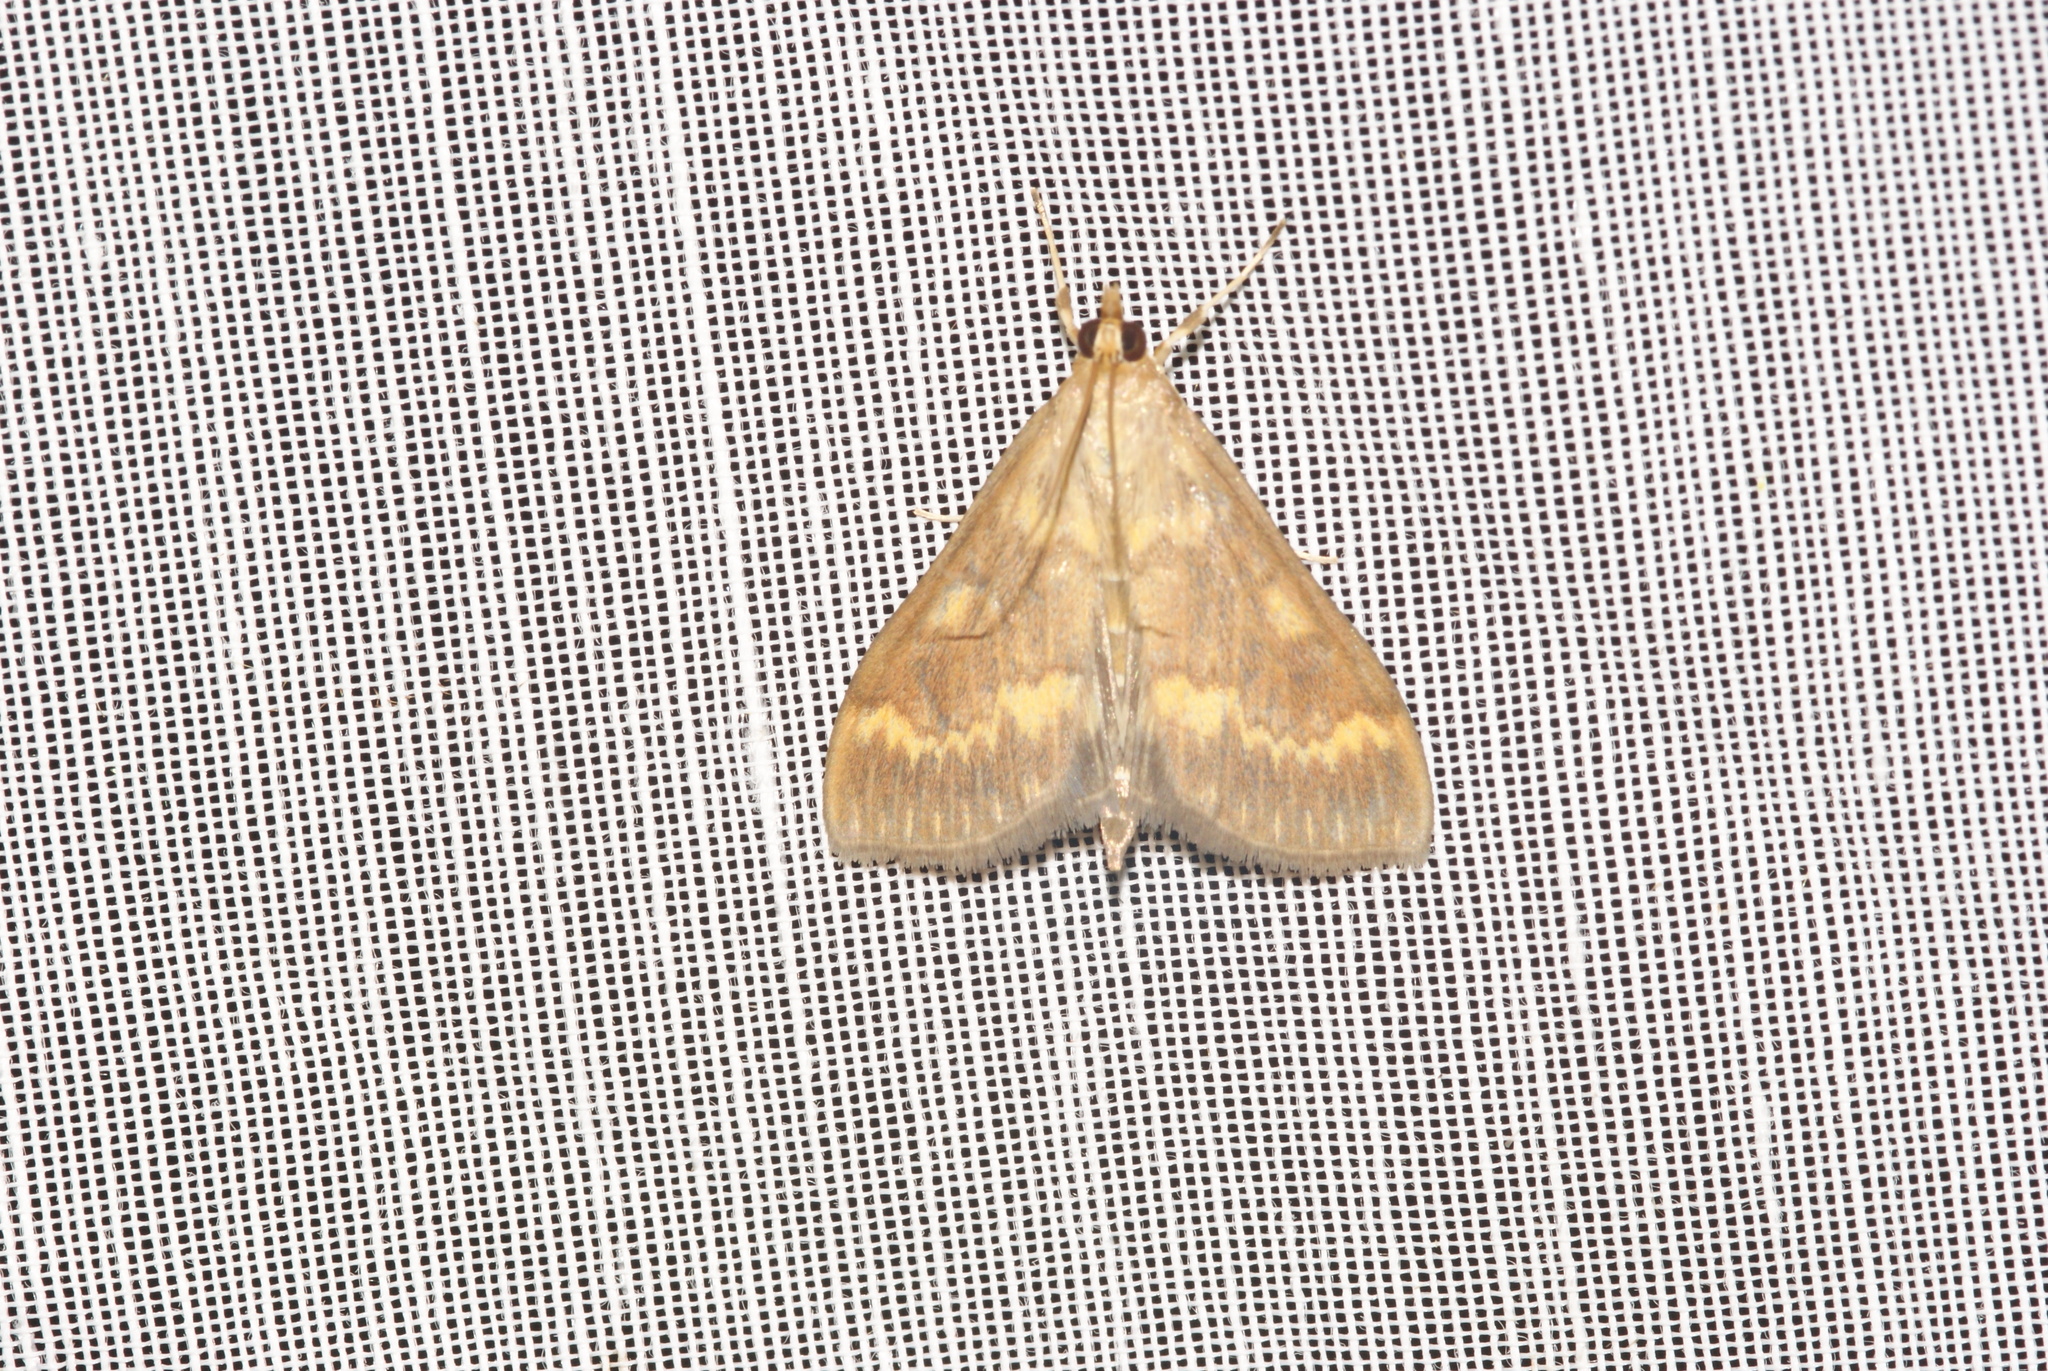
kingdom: Animalia
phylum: Arthropoda
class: Insecta
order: Lepidoptera
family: Crambidae
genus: Ostrinia
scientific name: Ostrinia nubilalis
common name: European corn borer
